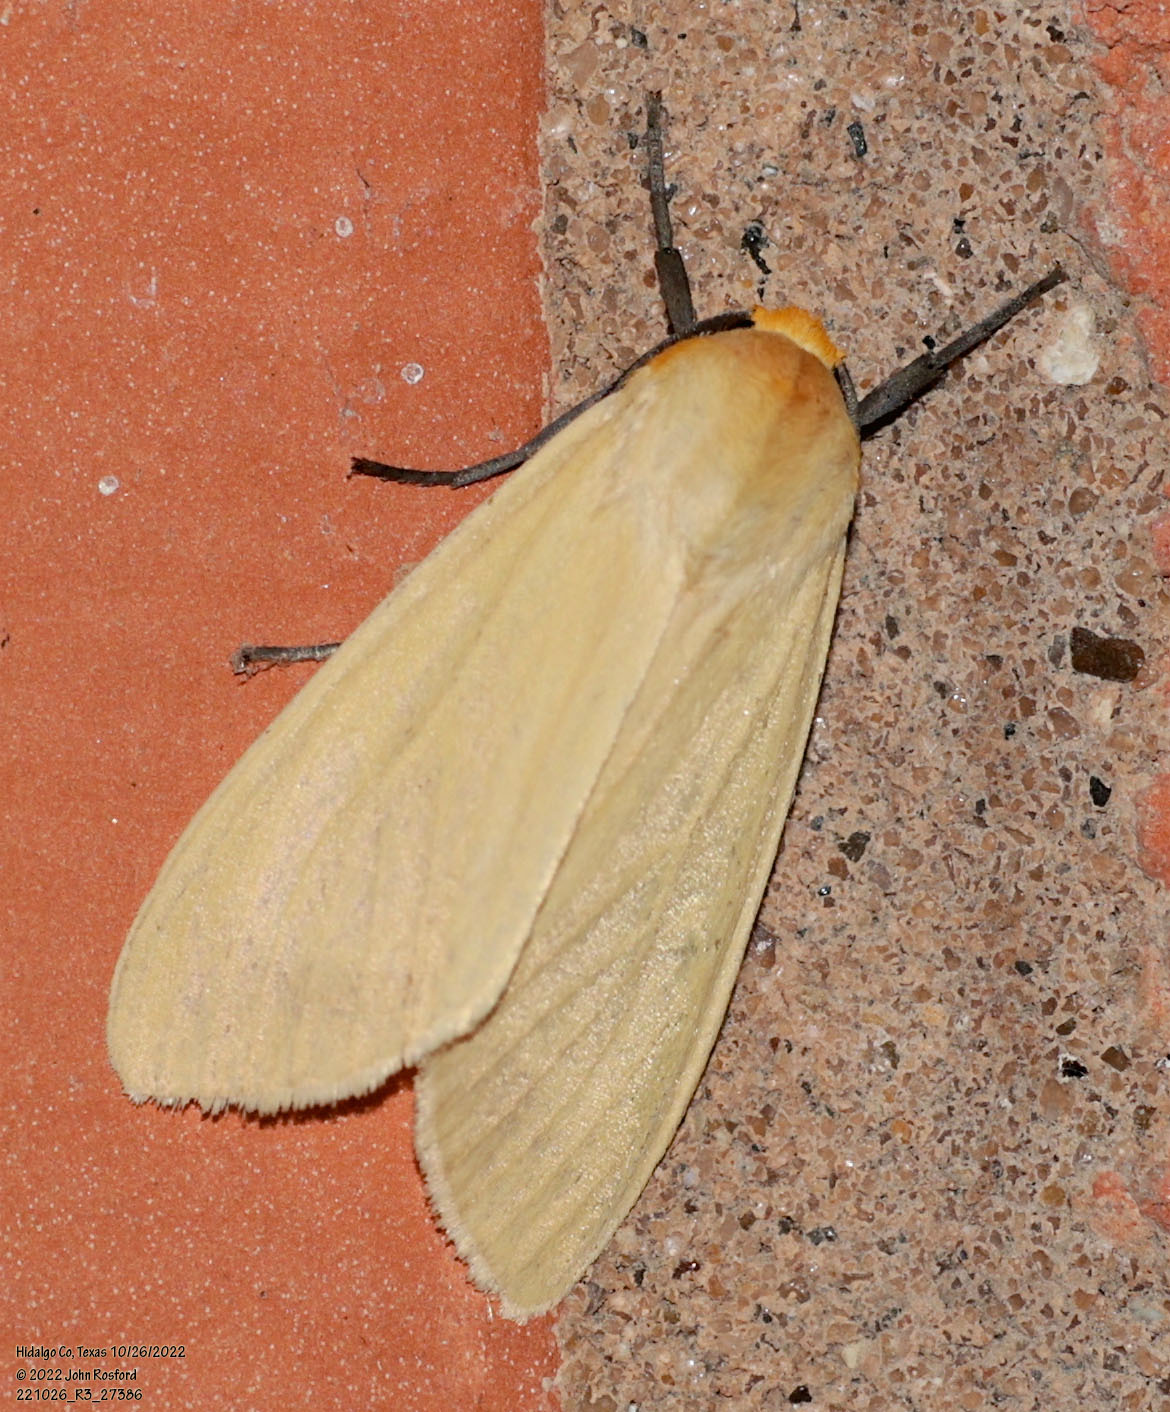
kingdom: Animalia
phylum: Arthropoda
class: Insecta
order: Lepidoptera
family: Erebidae
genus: Pareuchaetes
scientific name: Pareuchaetes insulata
